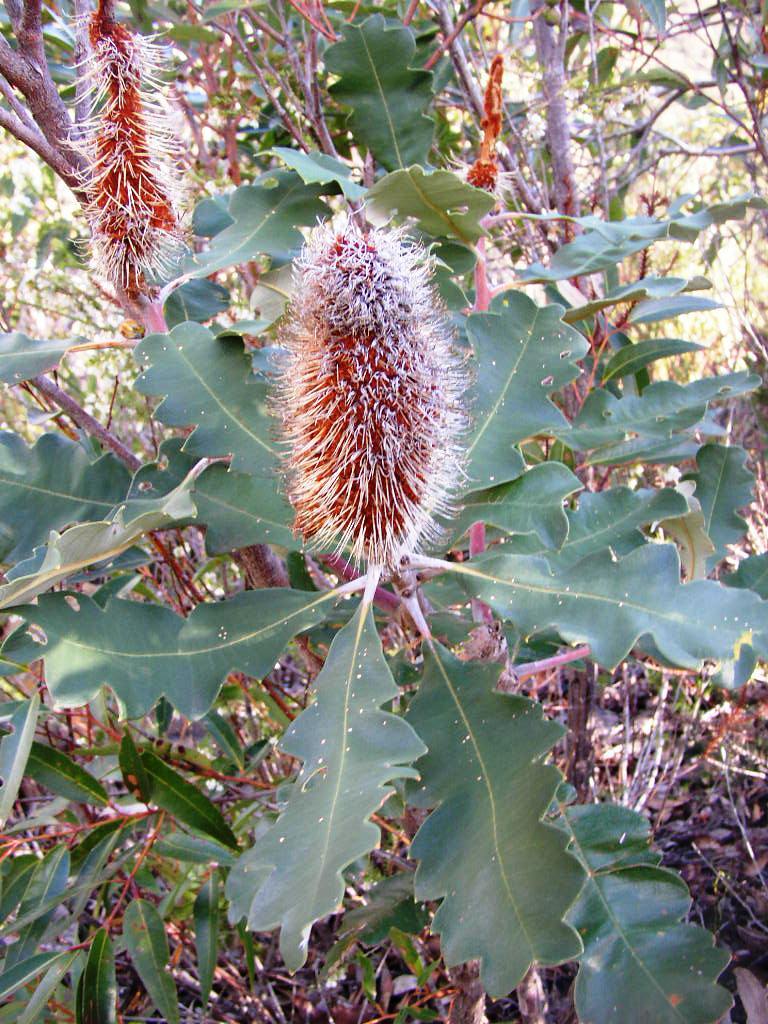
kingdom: Plantae
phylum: Tracheophyta
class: Magnoliopsida
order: Proteales
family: Proteaceae
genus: Banksia
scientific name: Banksia solandri
